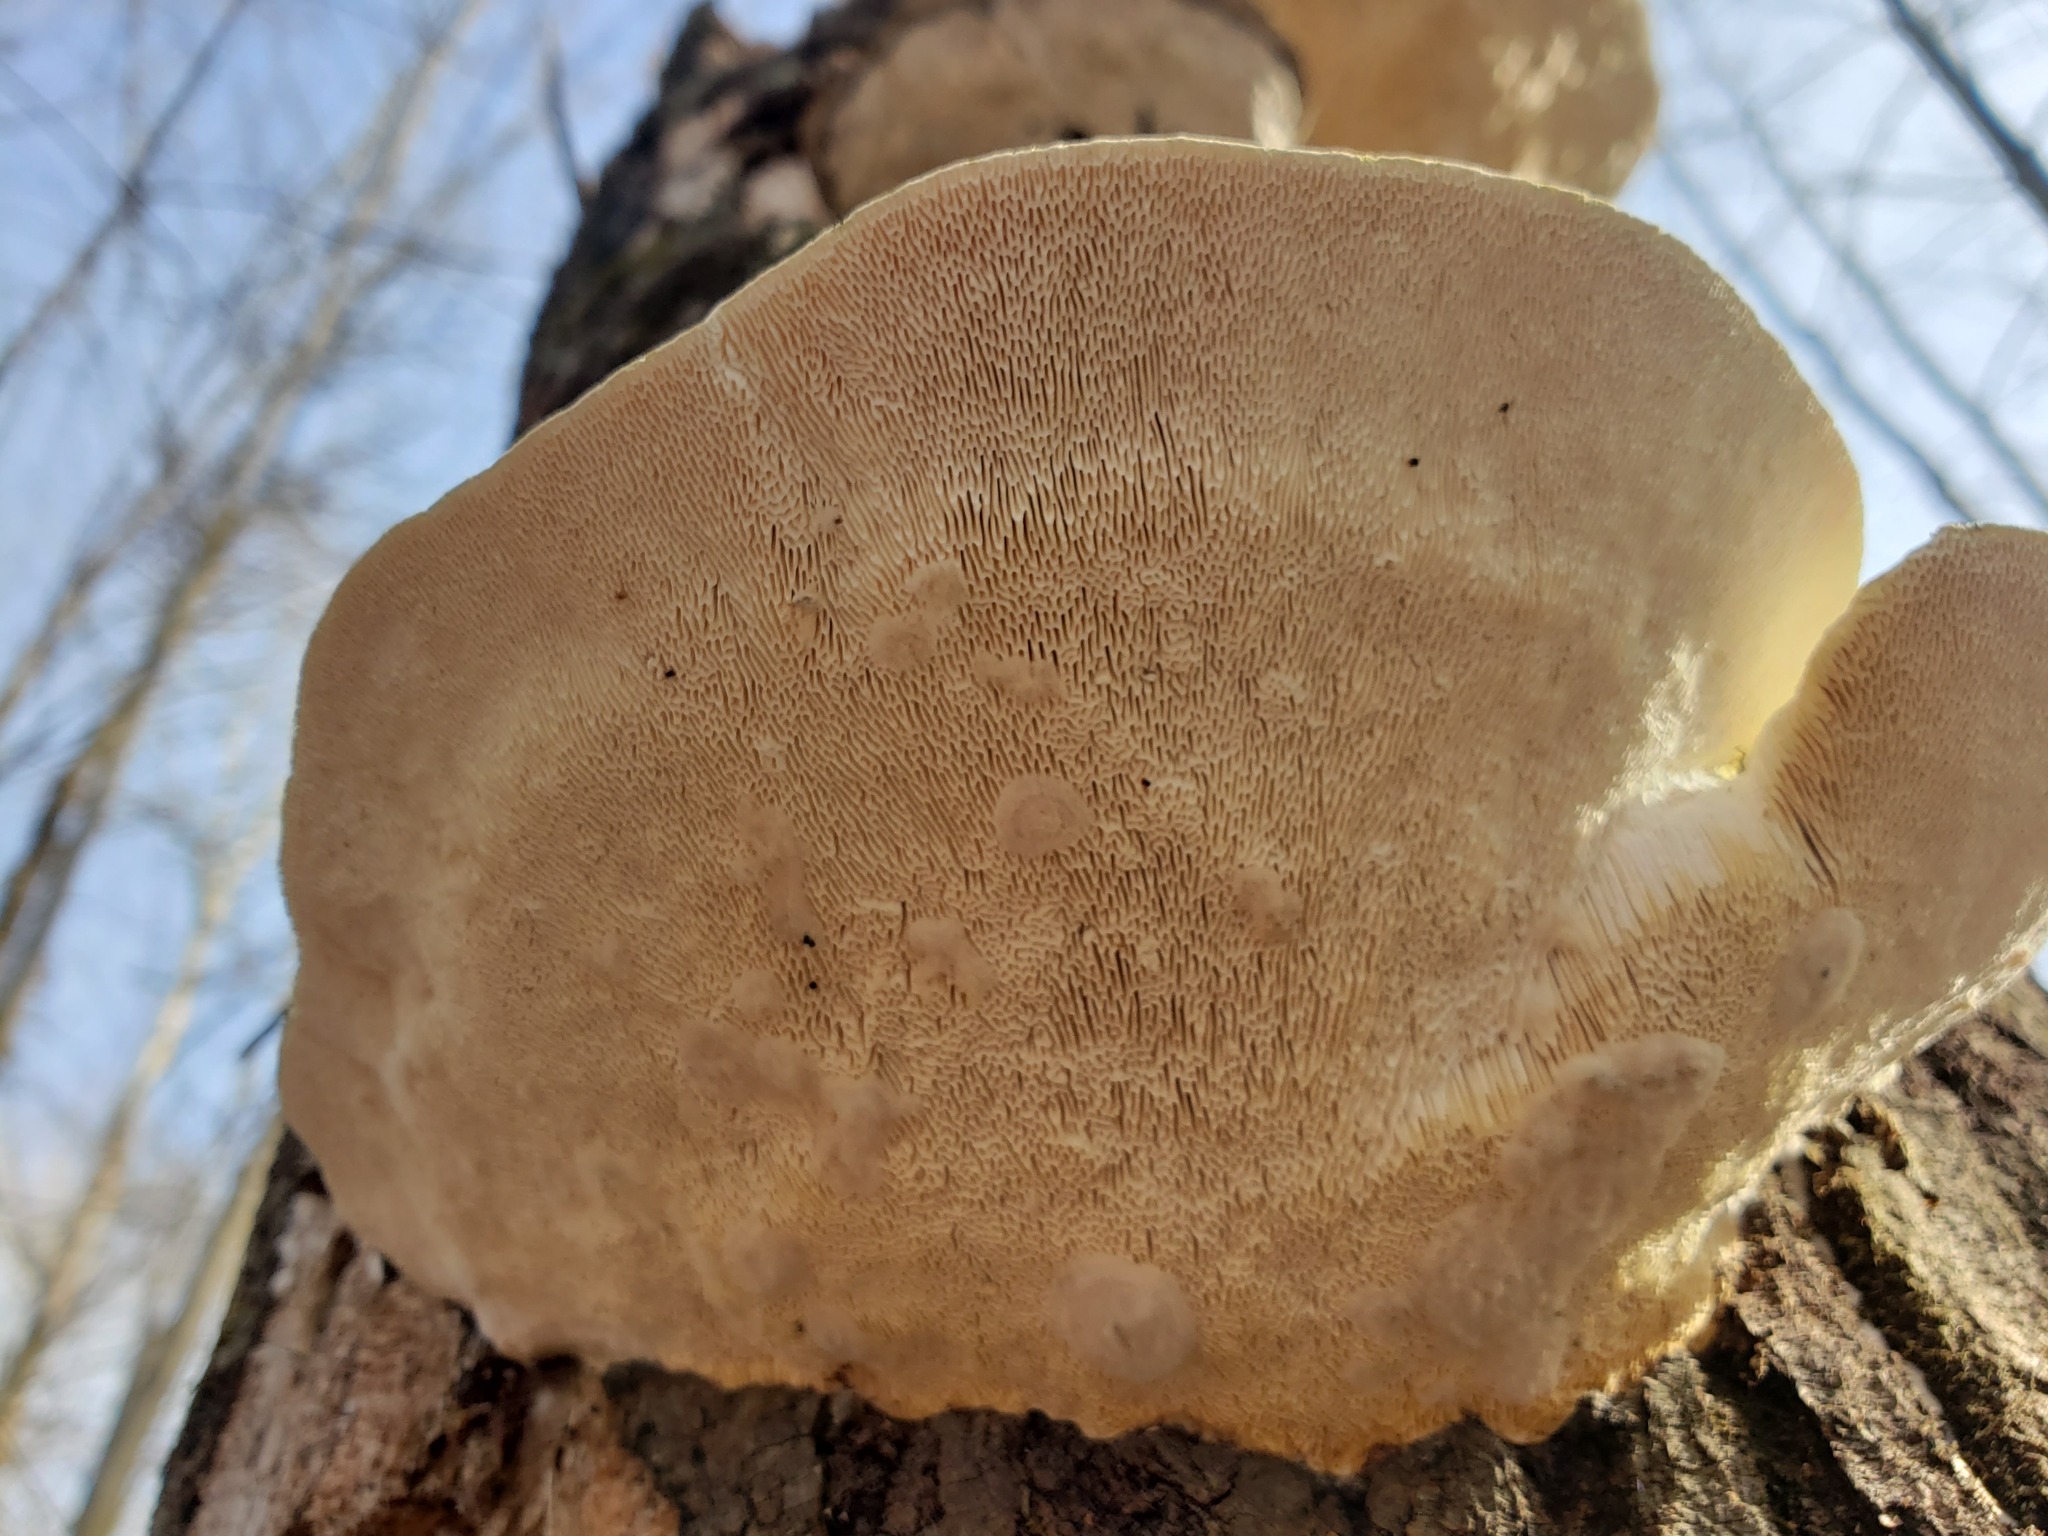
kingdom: Fungi
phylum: Basidiomycota
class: Agaricomycetes
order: Polyporales
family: Polyporaceae
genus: Trametes
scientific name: Trametes gibbosa
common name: Lumpy bracket
